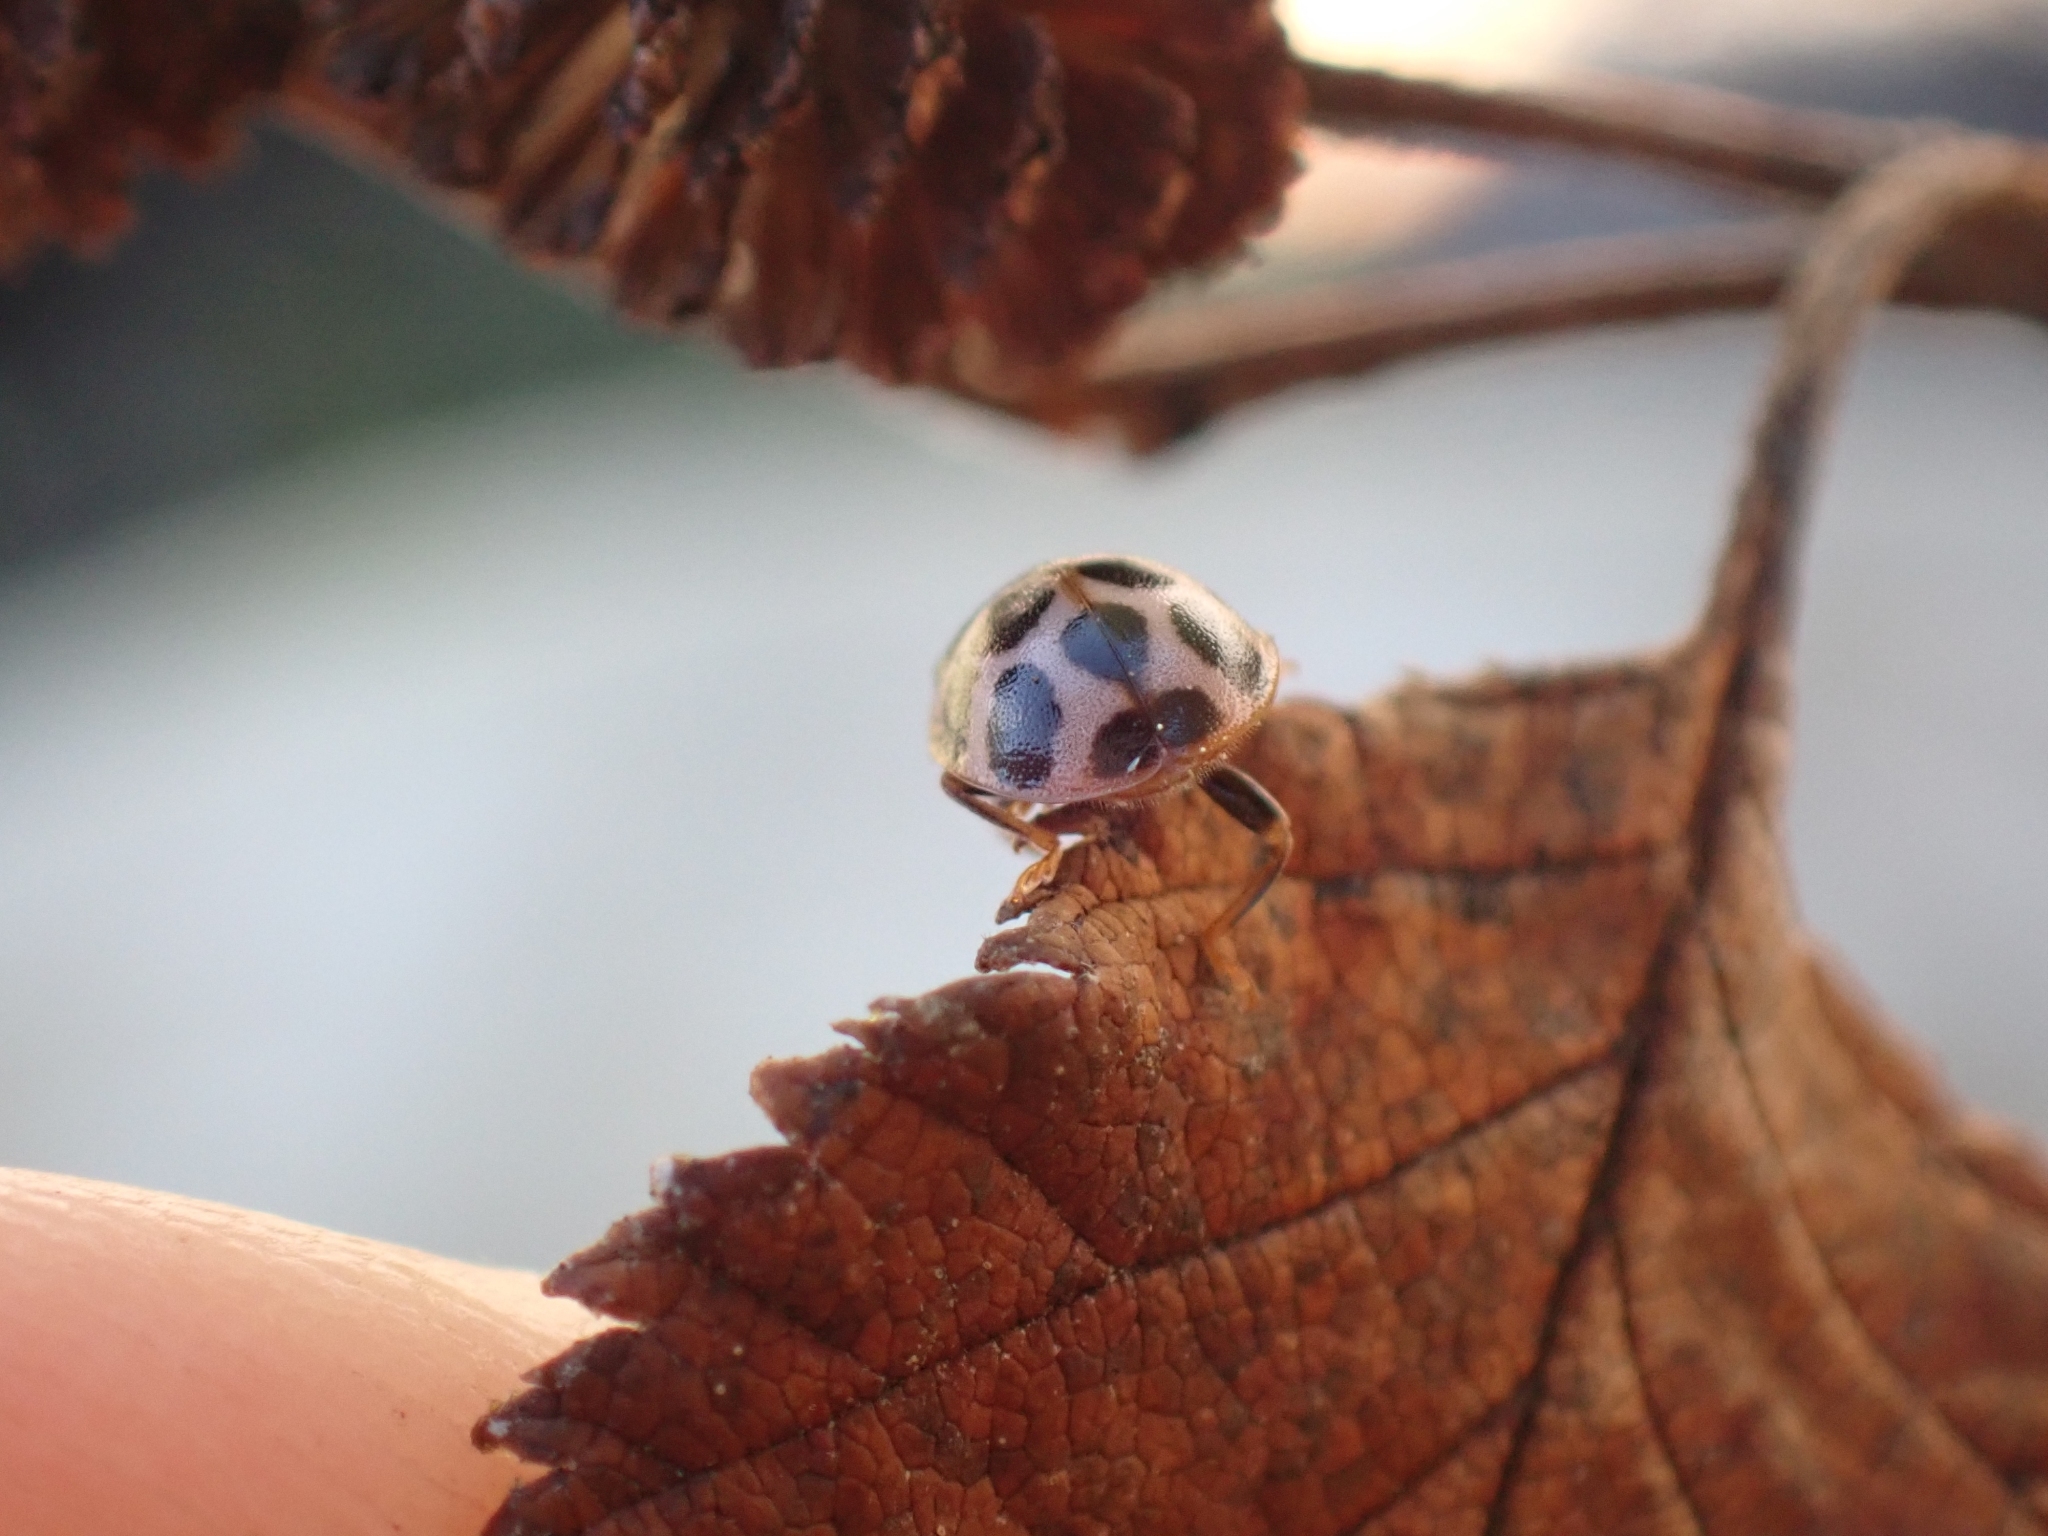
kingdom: Animalia
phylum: Arthropoda
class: Insecta
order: Coleoptera
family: Coccinellidae
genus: Calvia
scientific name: Calvia quatuordecimguttata
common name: Cream-spot ladybird
